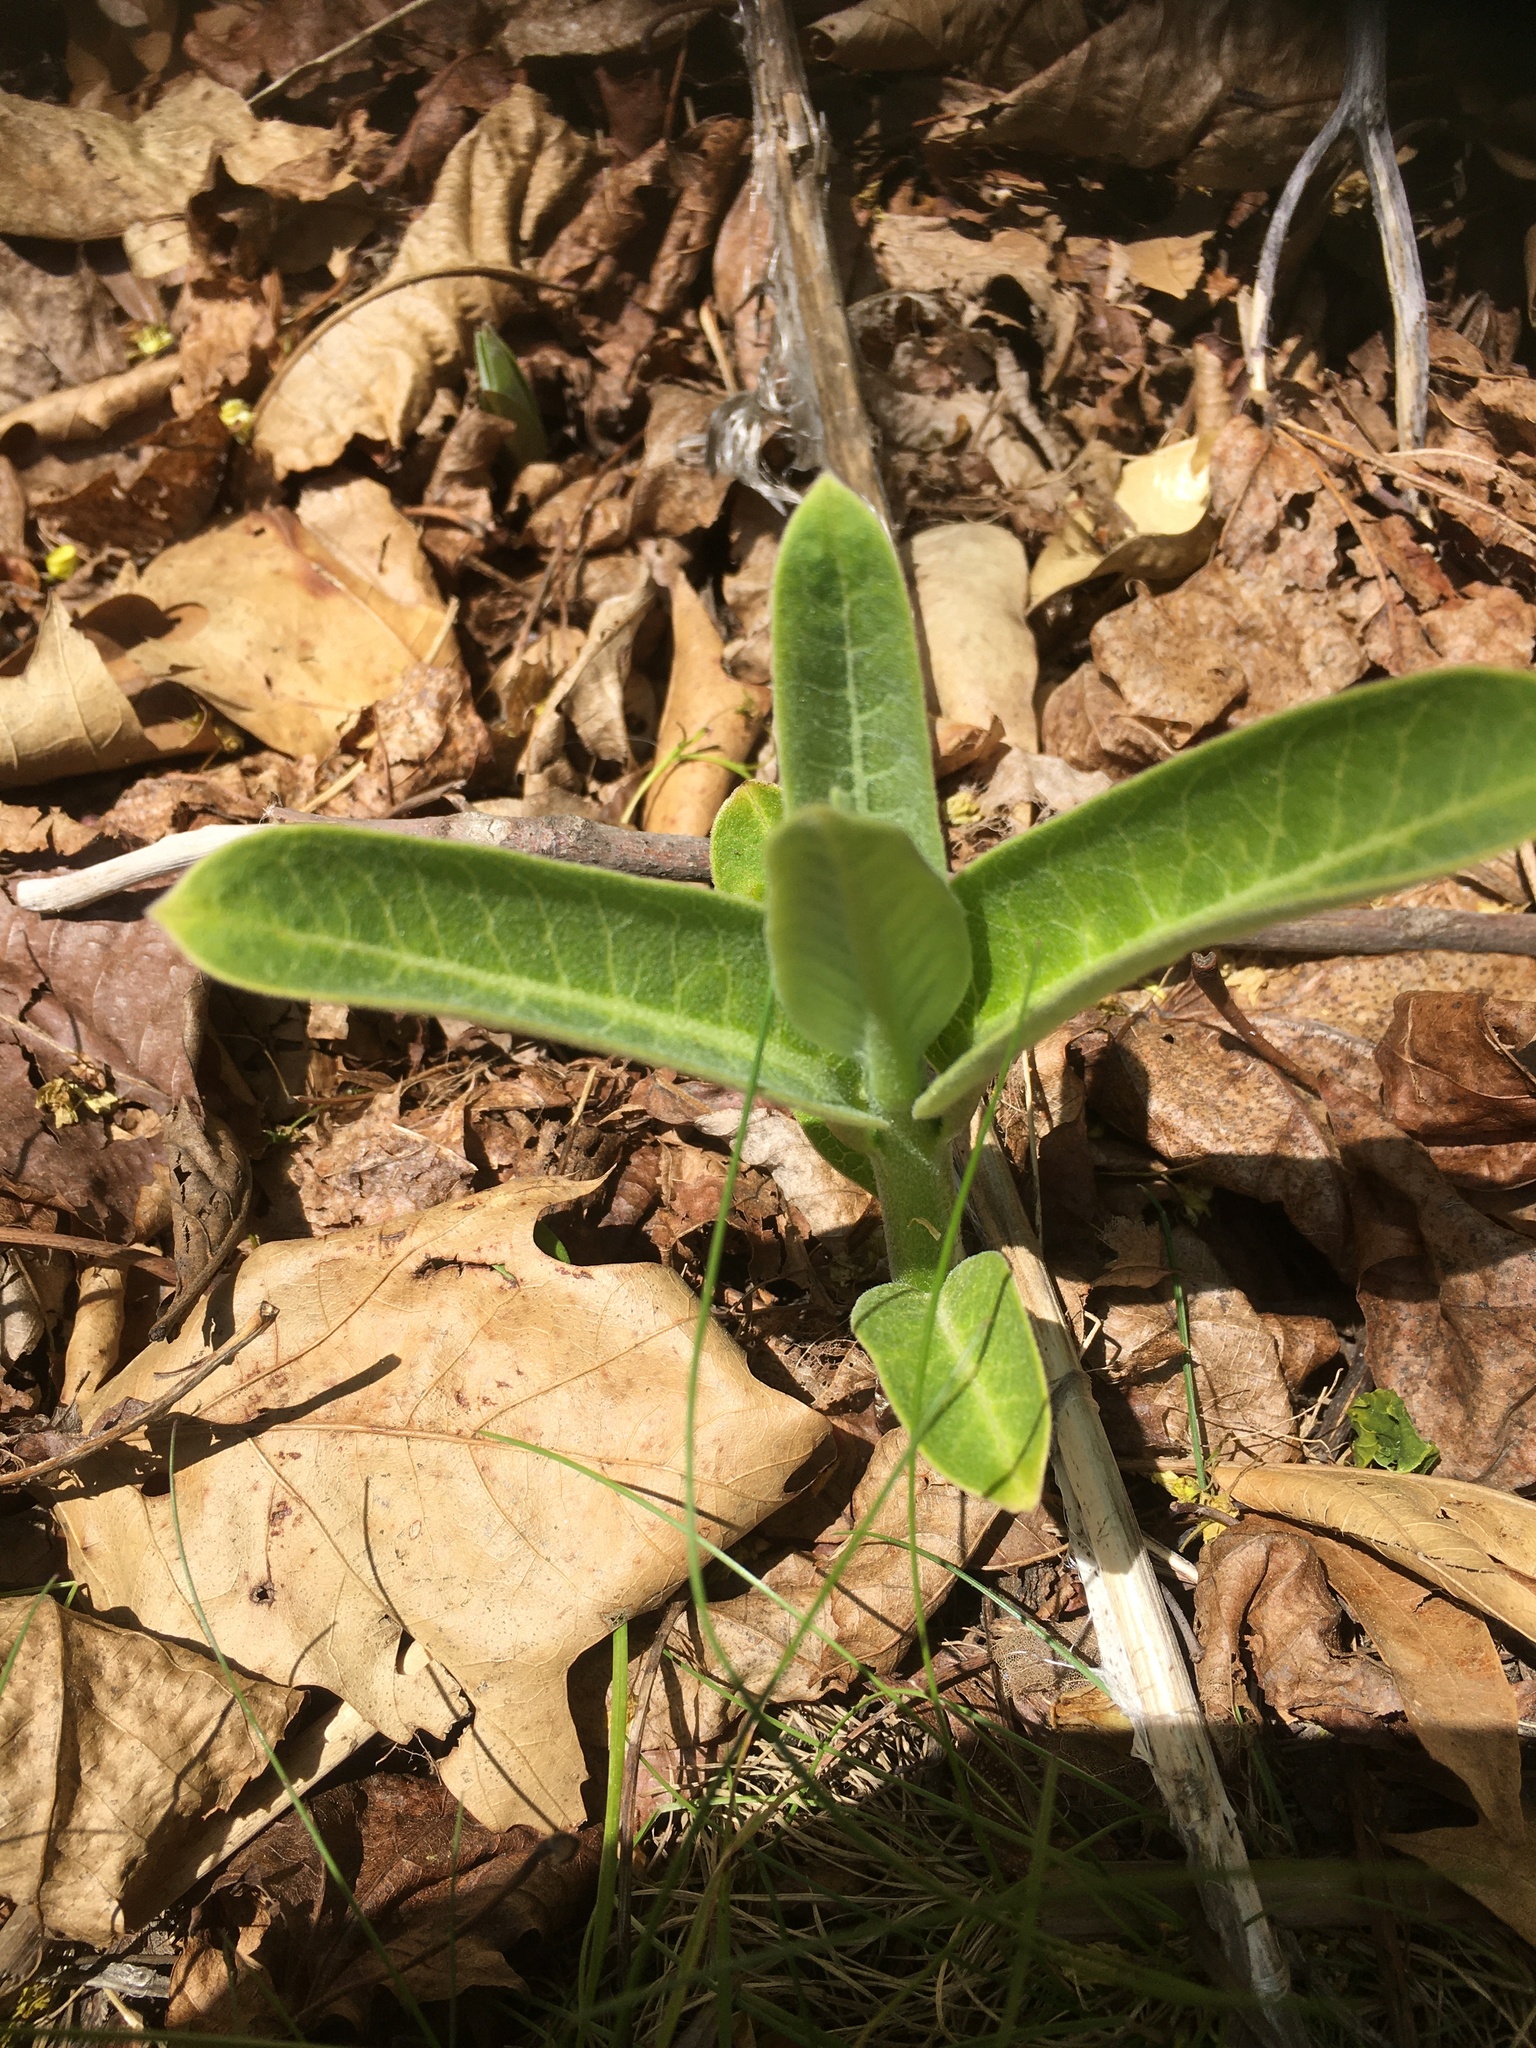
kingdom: Plantae
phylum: Tracheophyta
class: Magnoliopsida
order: Gentianales
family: Apocynaceae
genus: Asclepias
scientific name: Asclepias syriaca
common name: Common milkweed
